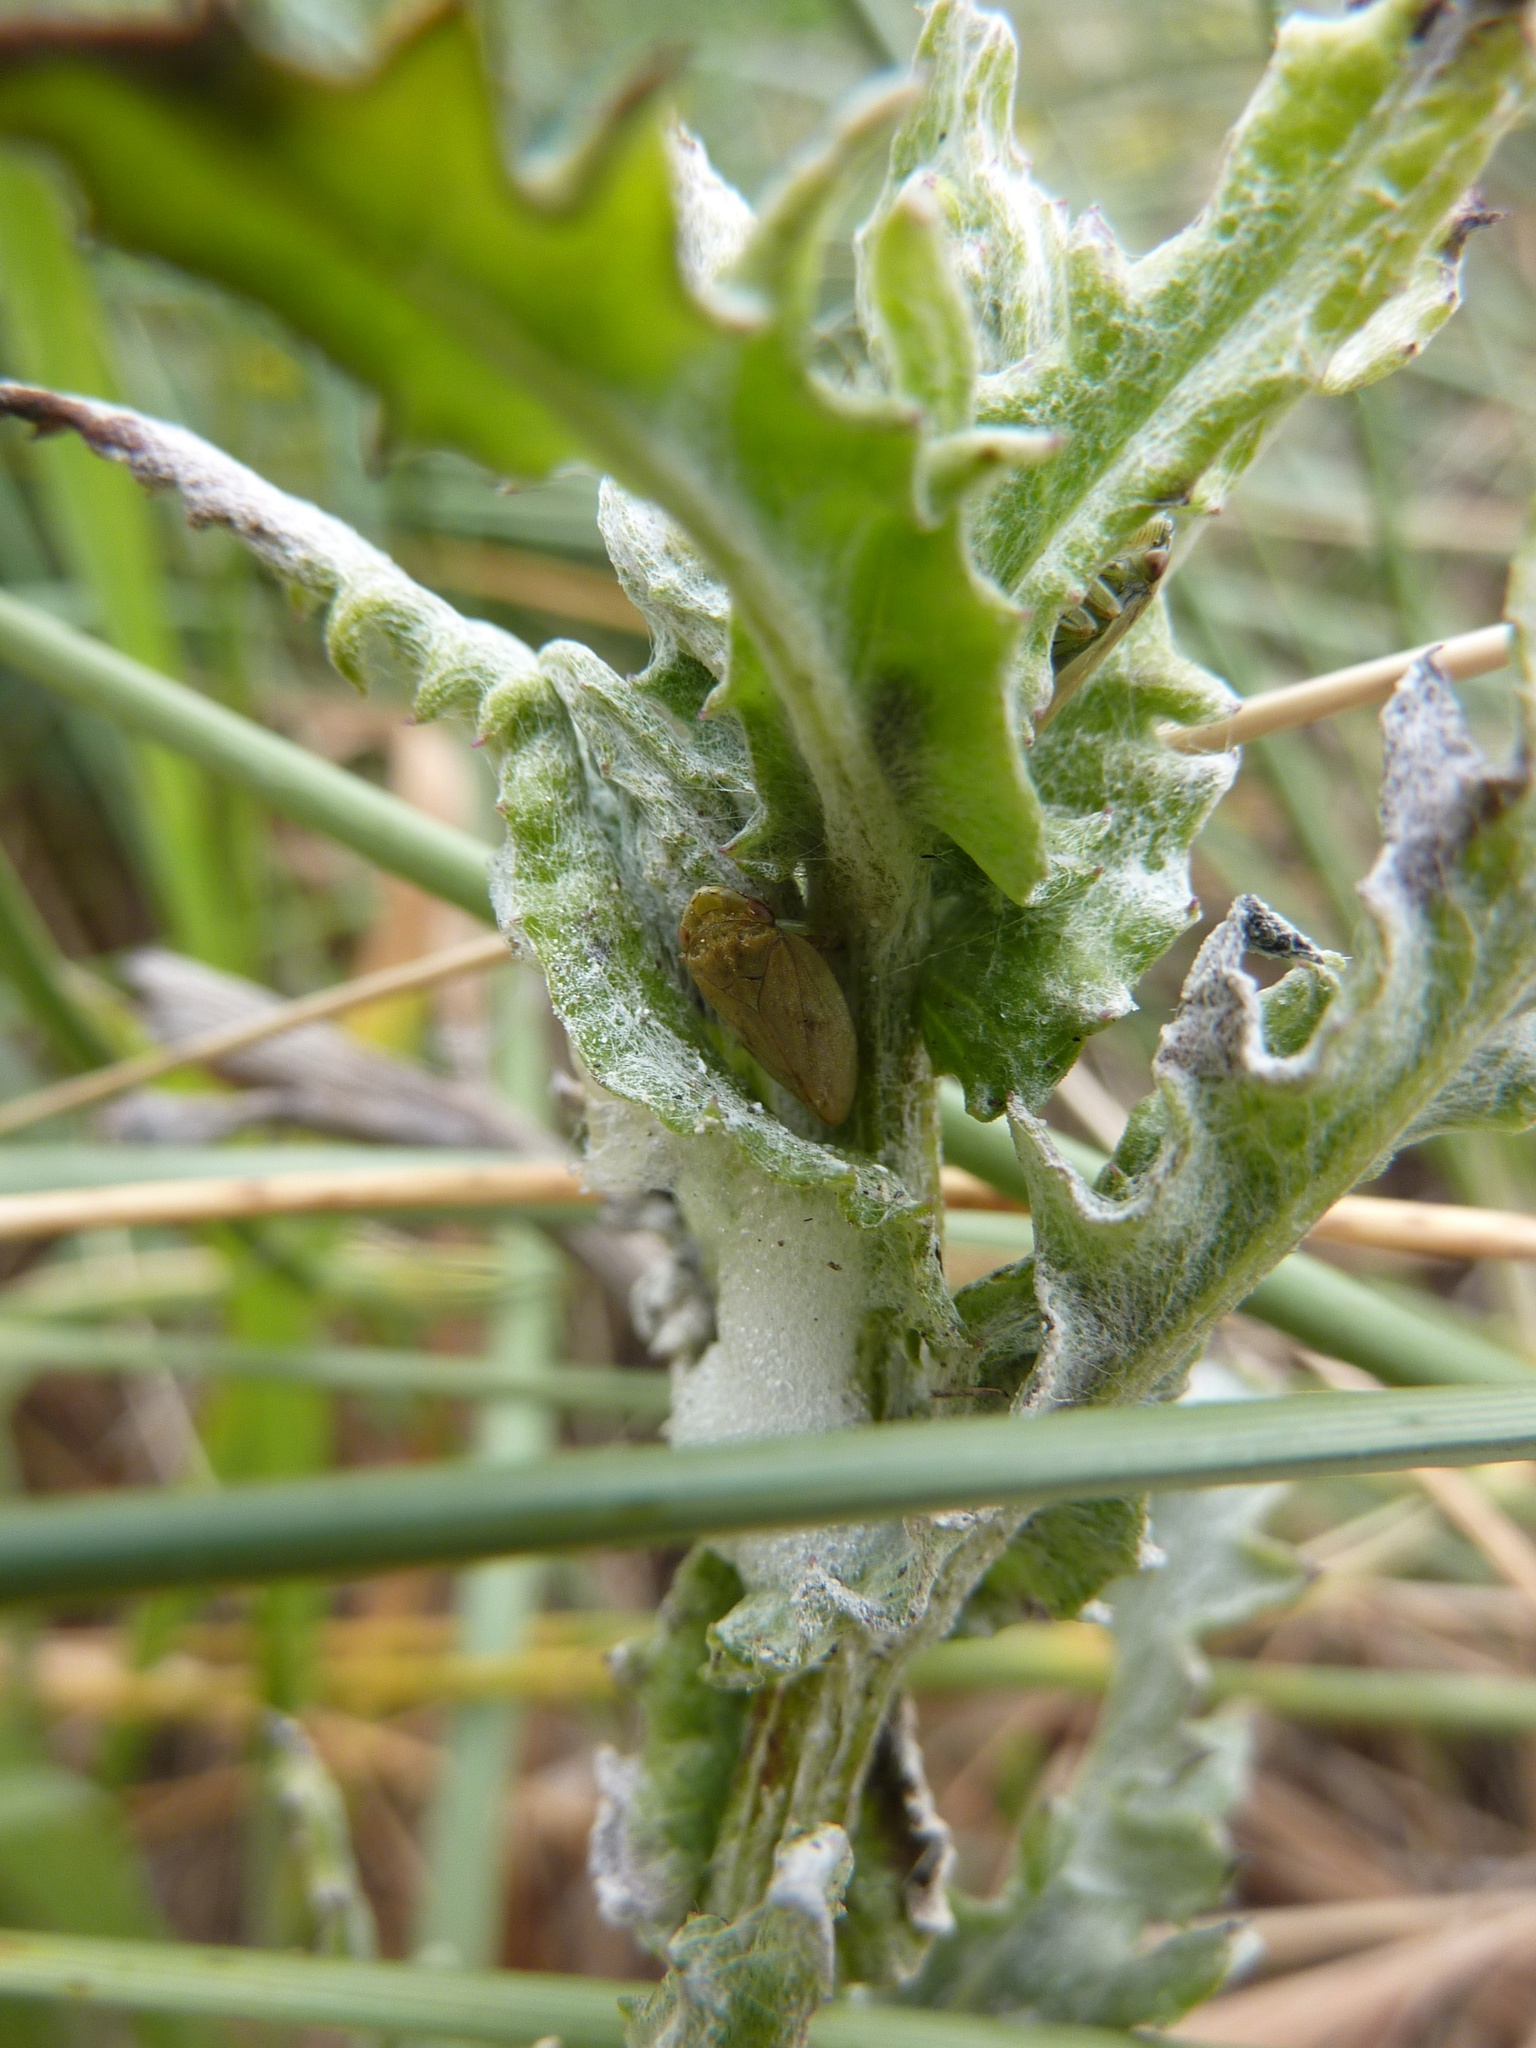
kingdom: Animalia
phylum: Arthropoda
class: Insecta
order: Hemiptera
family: Aphrophoridae
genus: Philaenus
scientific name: Philaenus spumarius
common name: Meadow spittlebug
